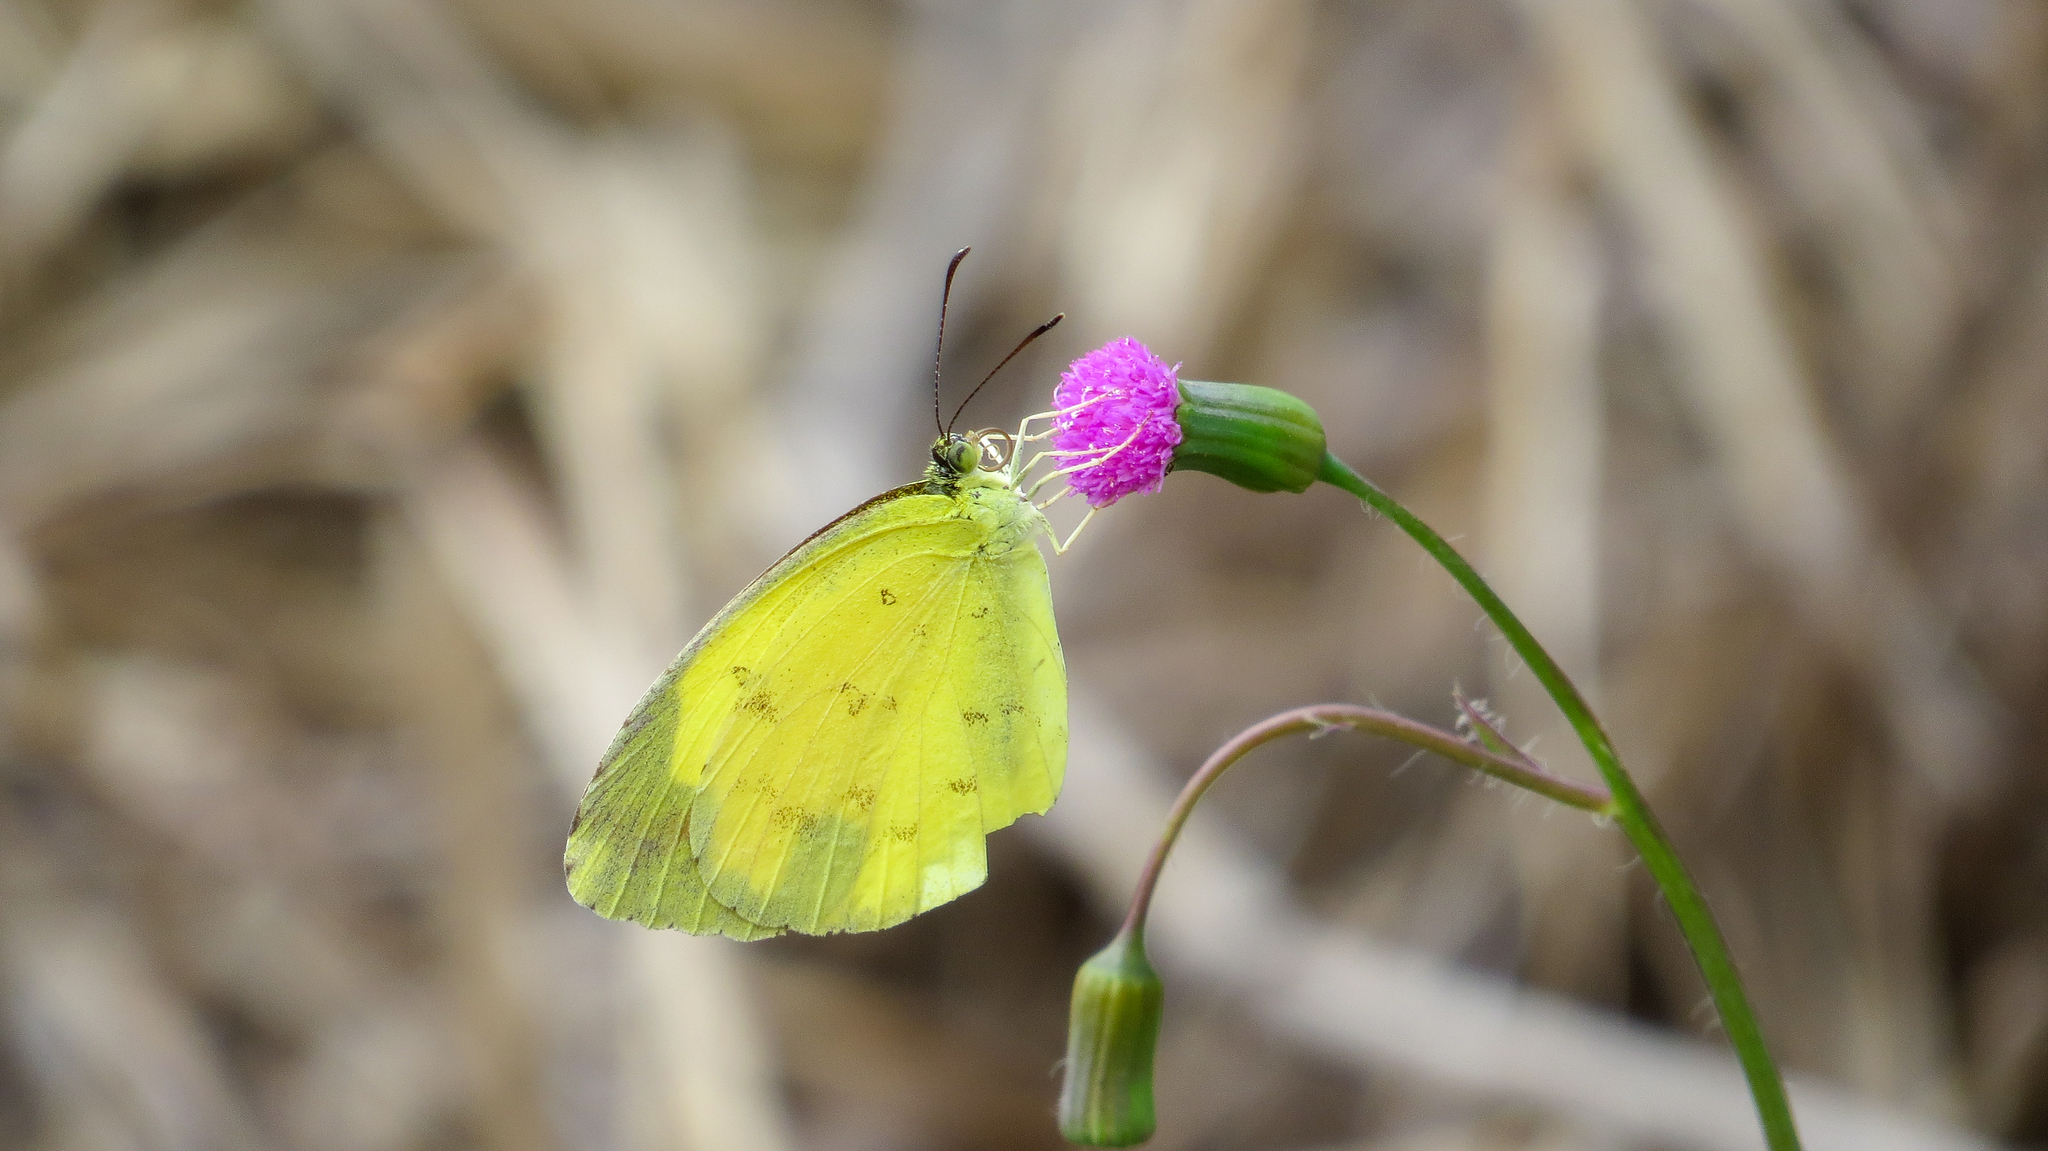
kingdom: Animalia
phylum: Arthropoda
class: Insecta
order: Lepidoptera
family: Pieridae
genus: Eurema
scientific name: Eurema hecabe
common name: Pale grass yellow
